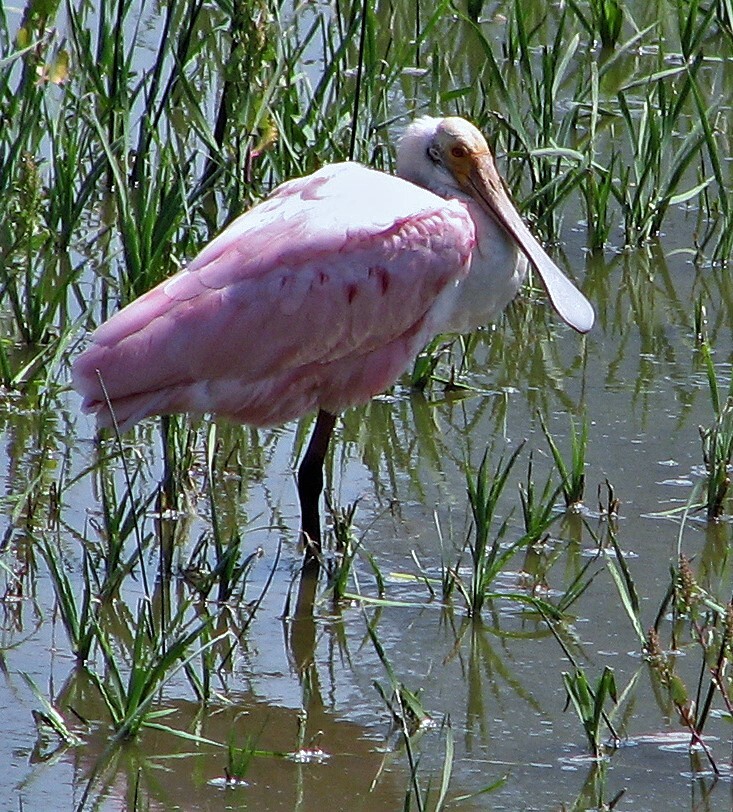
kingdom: Animalia
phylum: Chordata
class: Aves
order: Pelecaniformes
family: Threskiornithidae
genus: Platalea
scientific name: Platalea ajaja
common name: Roseate spoonbill
